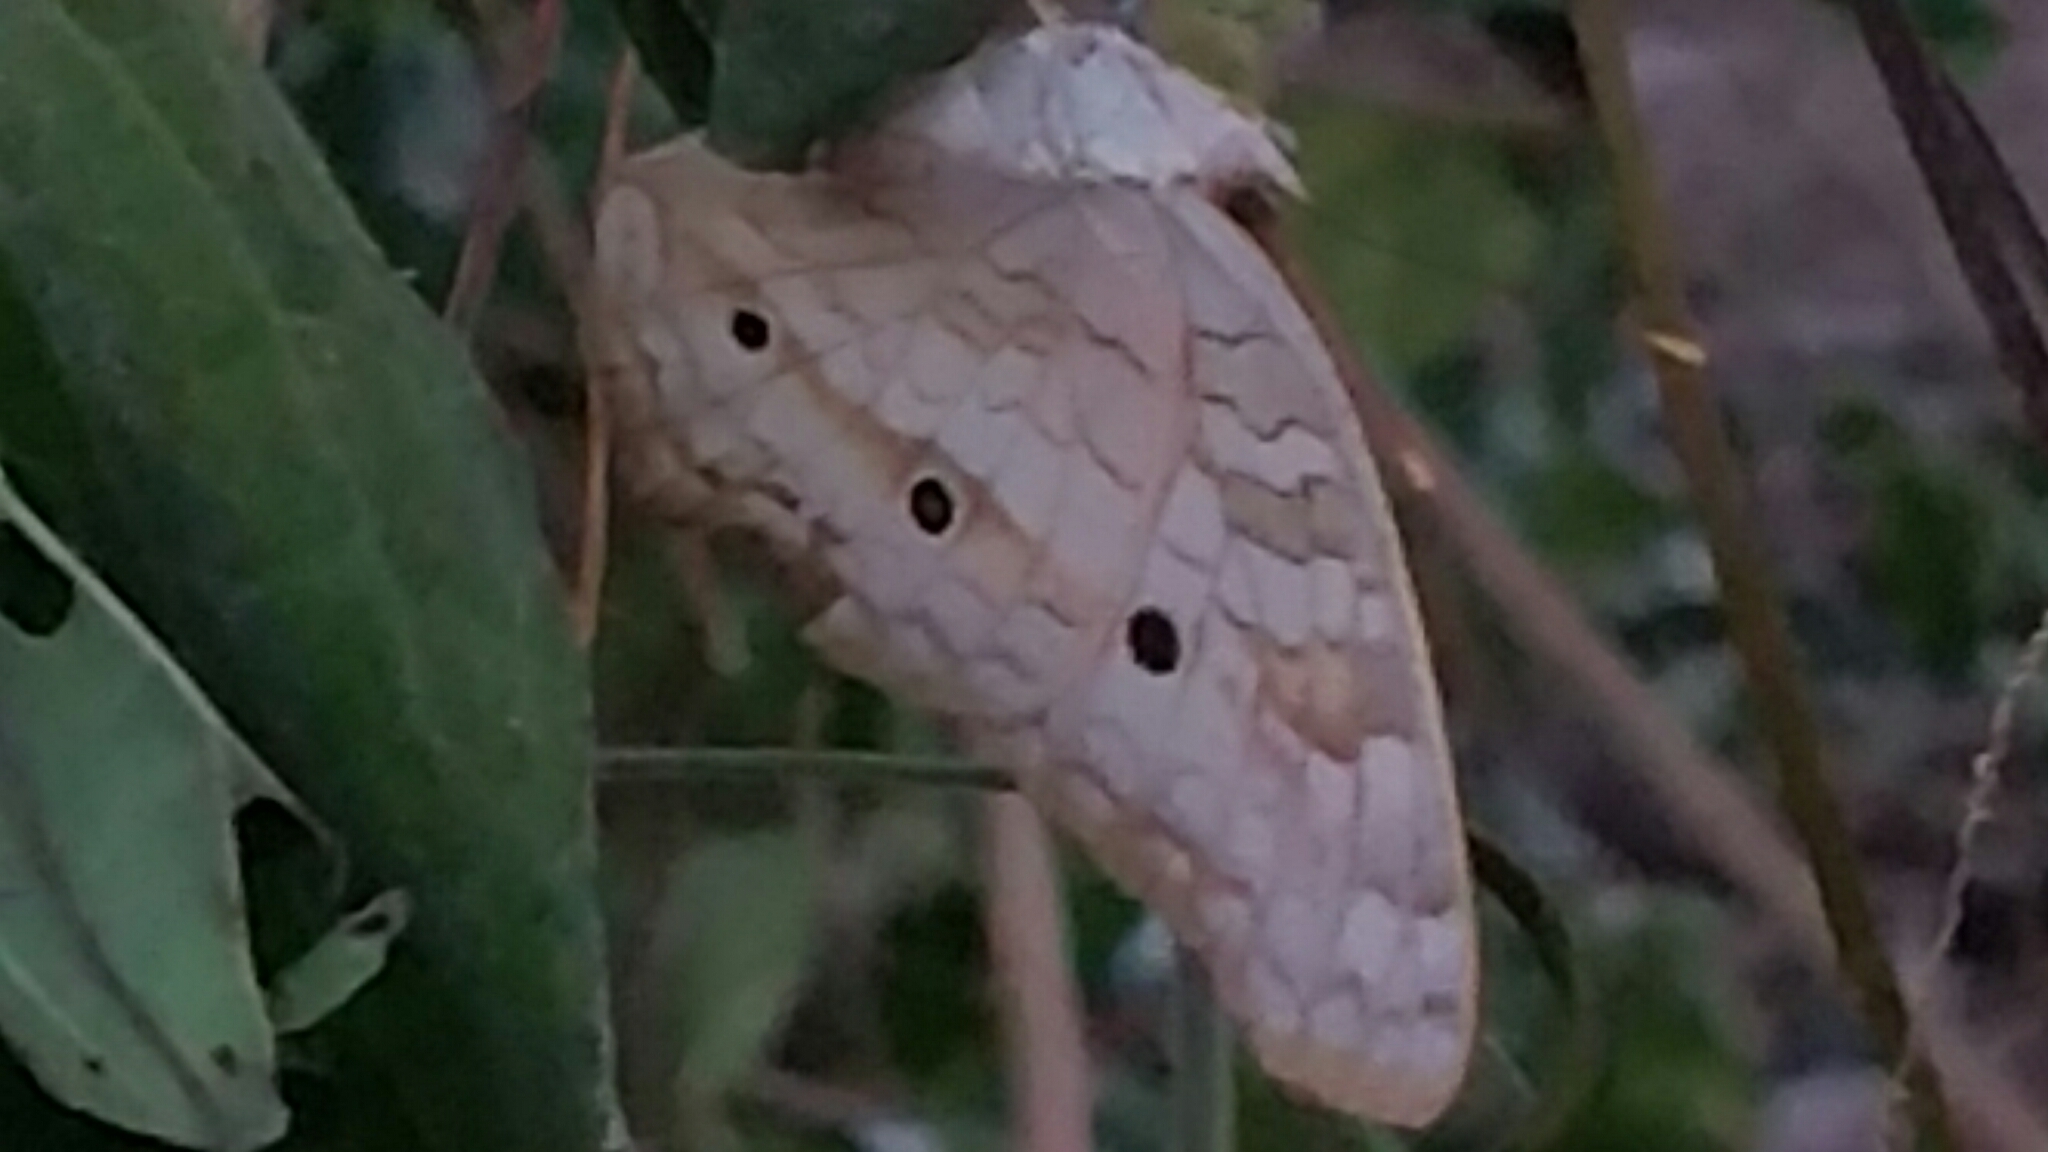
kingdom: Animalia
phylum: Arthropoda
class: Insecta
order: Lepidoptera
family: Nymphalidae
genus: Anartia
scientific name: Anartia jatrophae
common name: White peacock
